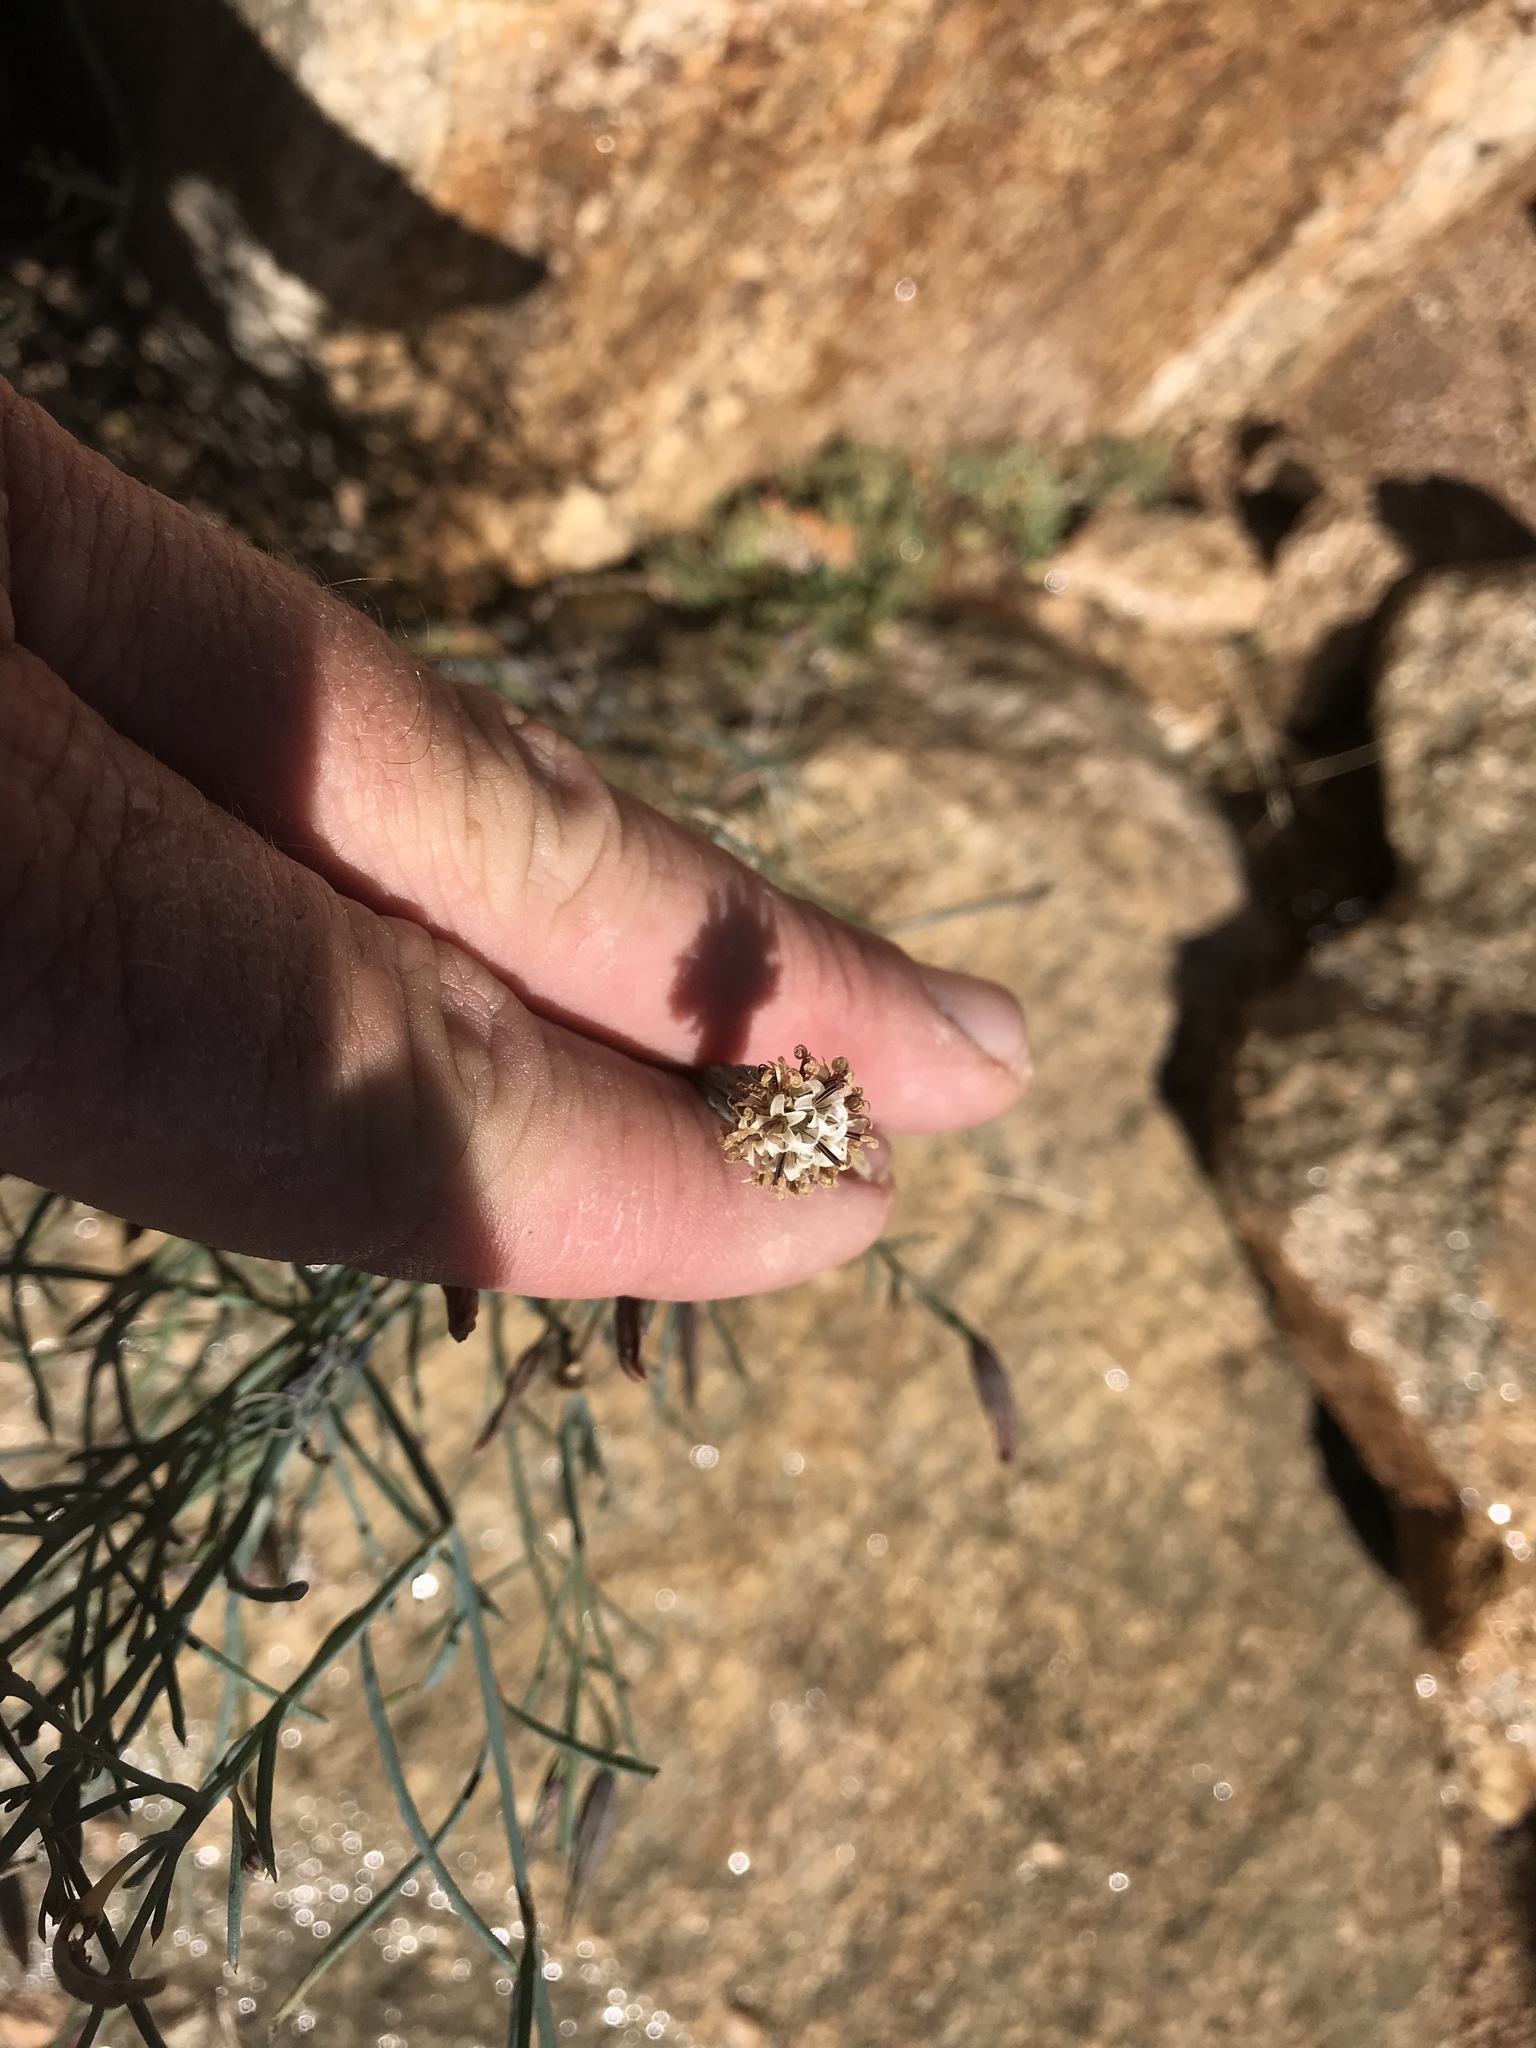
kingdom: Plantae
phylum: Tracheophyta
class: Magnoliopsida
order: Asterales
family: Asteraceae
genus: Porophyllum
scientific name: Porophyllum gracile
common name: Odora
